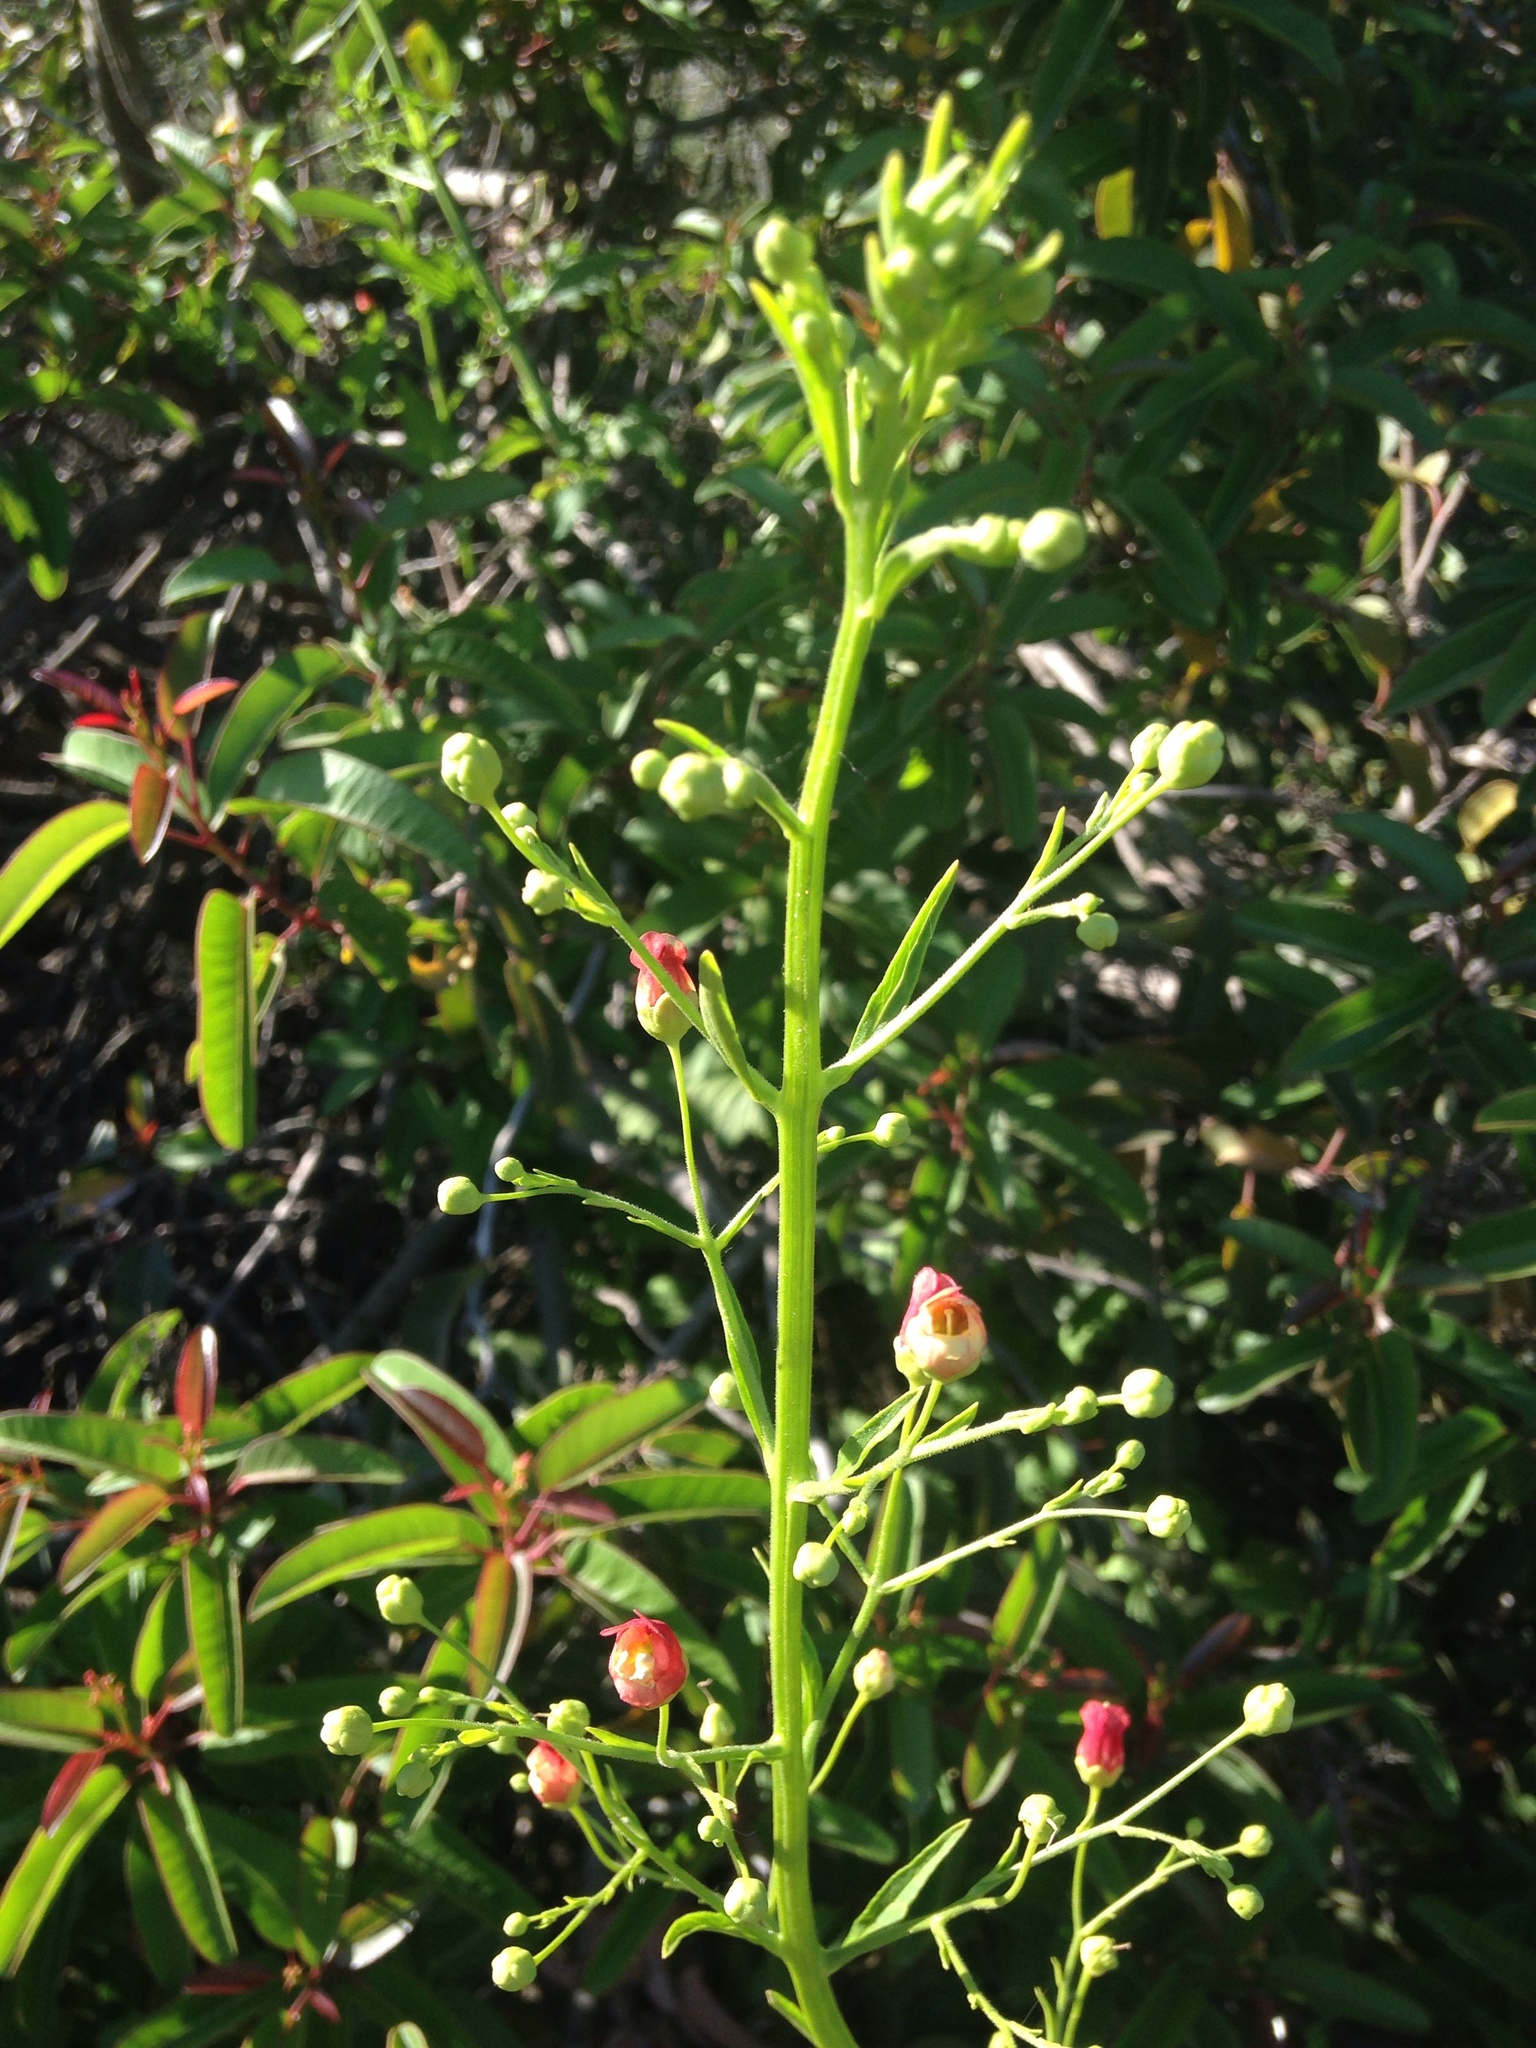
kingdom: Plantae
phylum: Tracheophyta
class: Magnoliopsida
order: Lamiales
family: Scrophulariaceae
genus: Scrophularia
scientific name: Scrophularia californica
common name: California figwort
